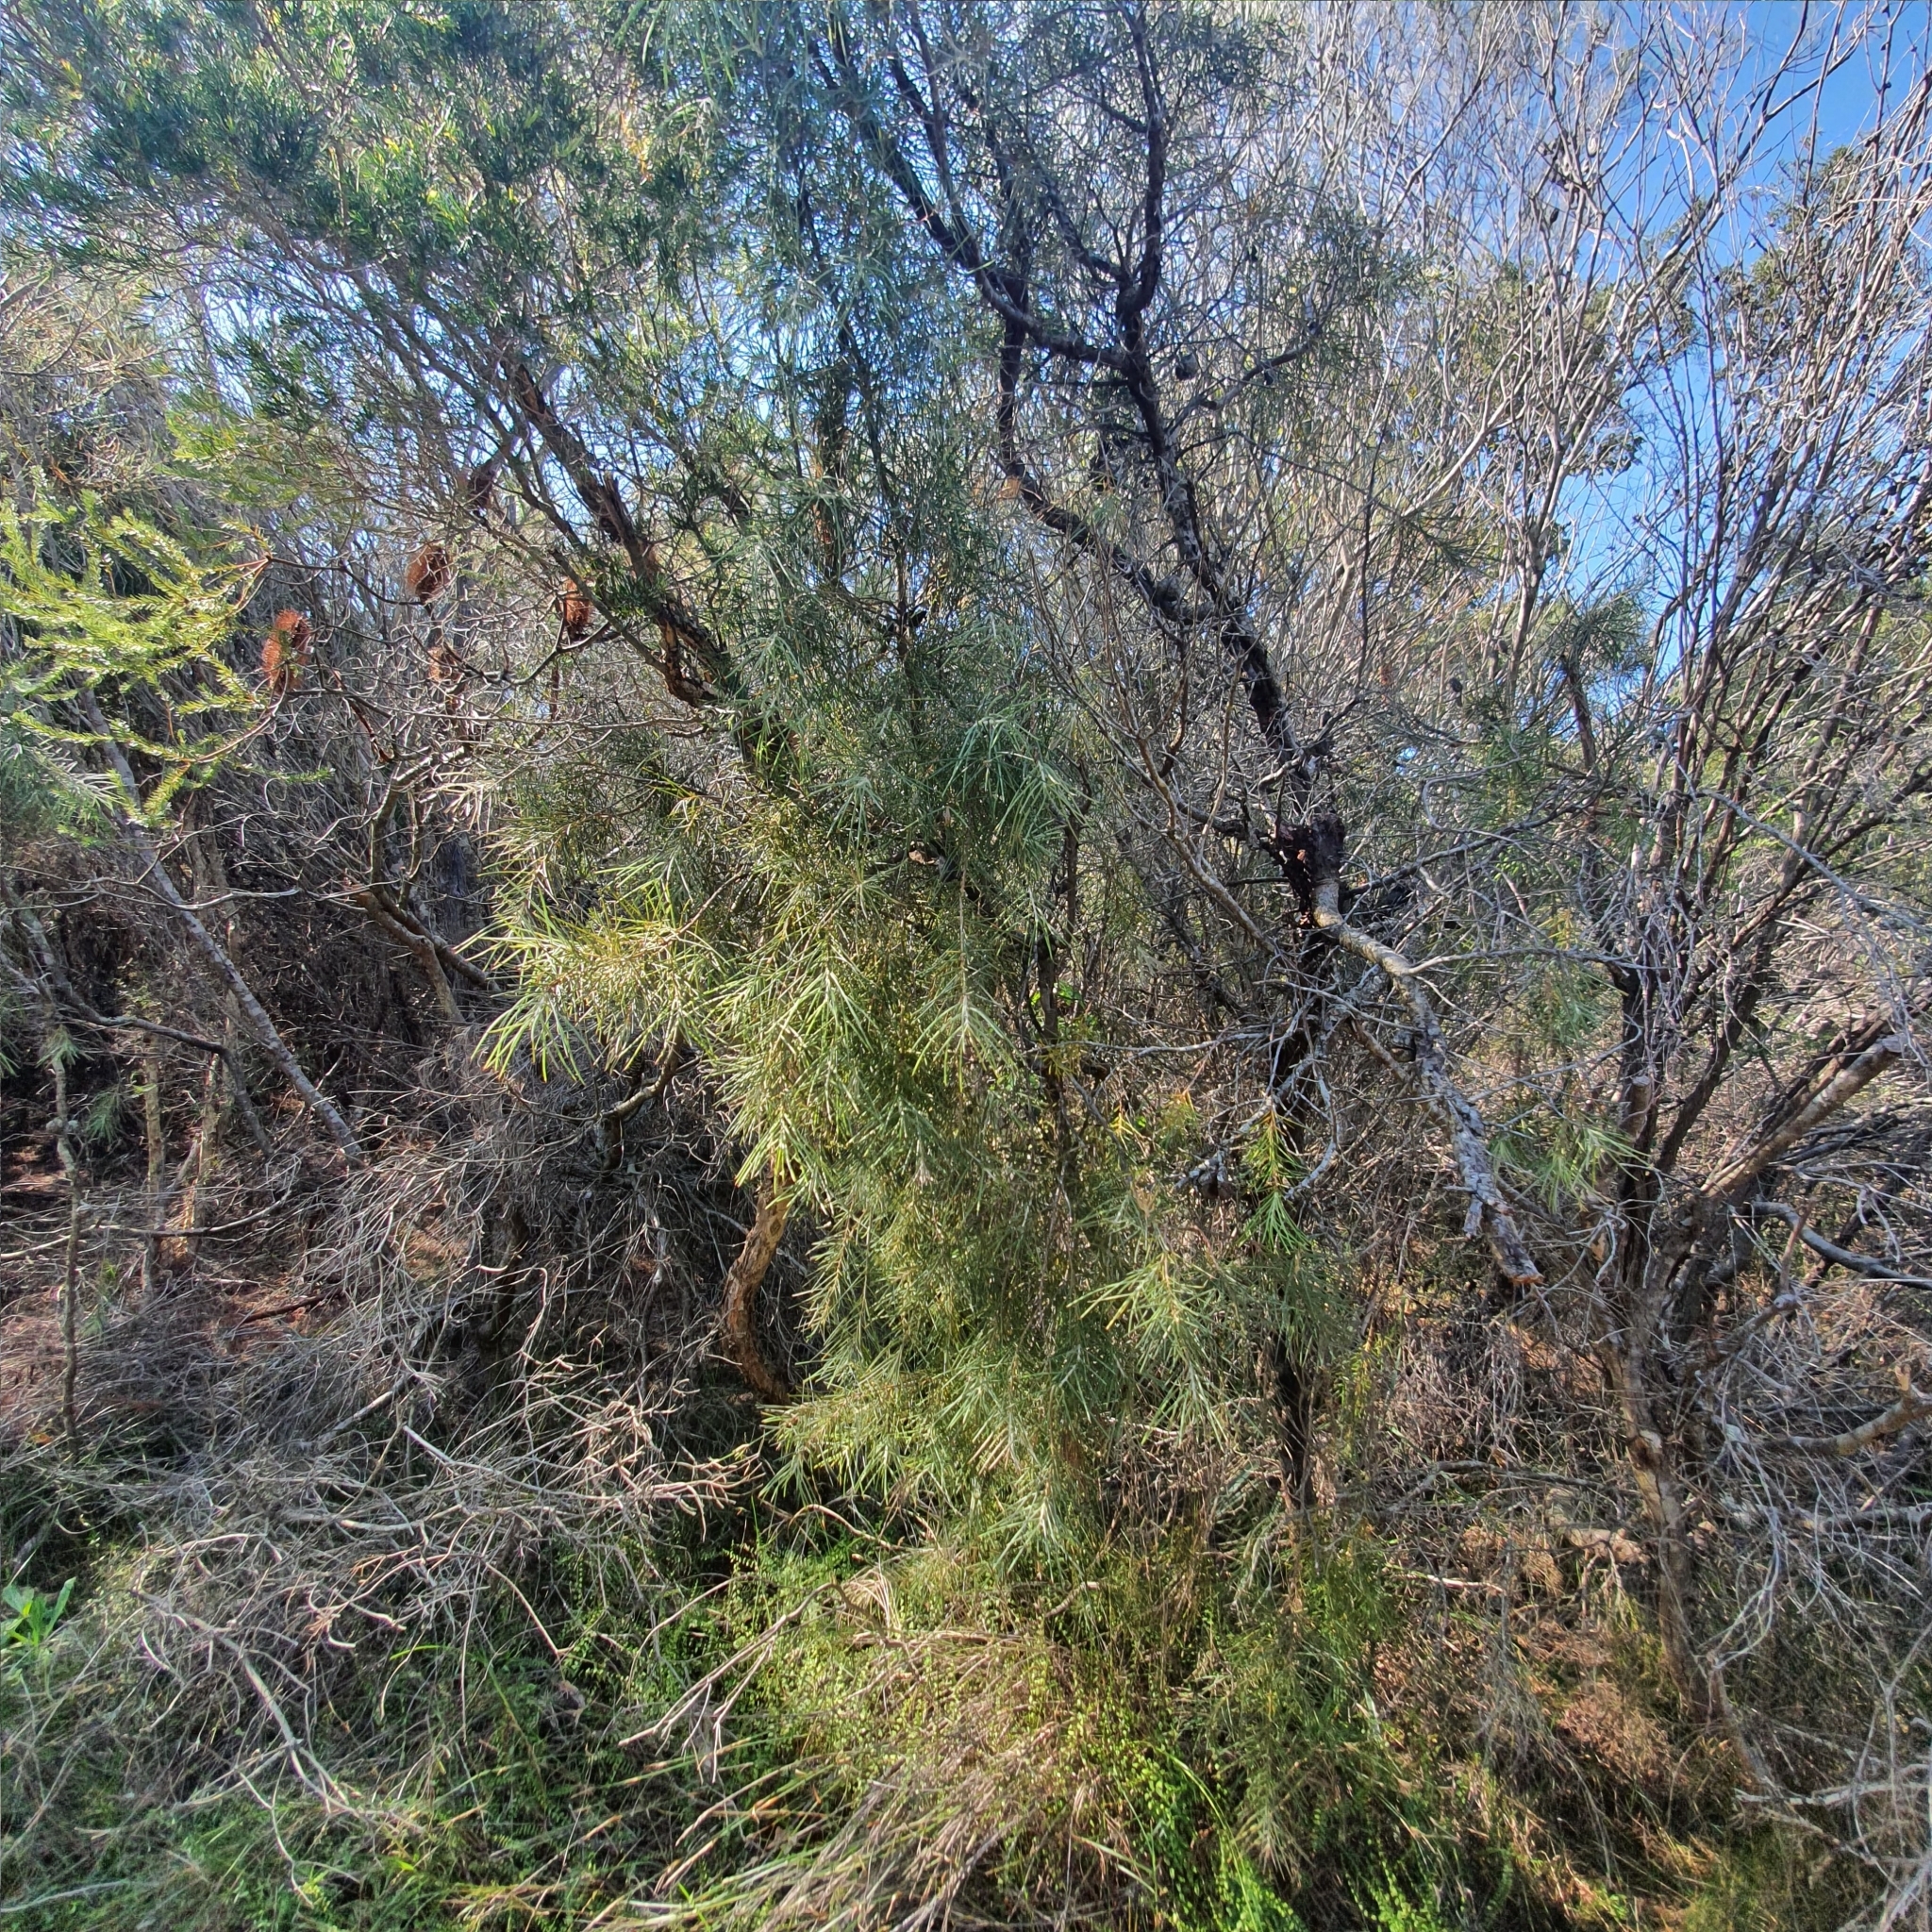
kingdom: Plantae
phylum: Tracheophyta
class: Magnoliopsida
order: Proteales
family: Proteaceae
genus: Hakea
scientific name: Hakea gibbosa
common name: Rock hakea
